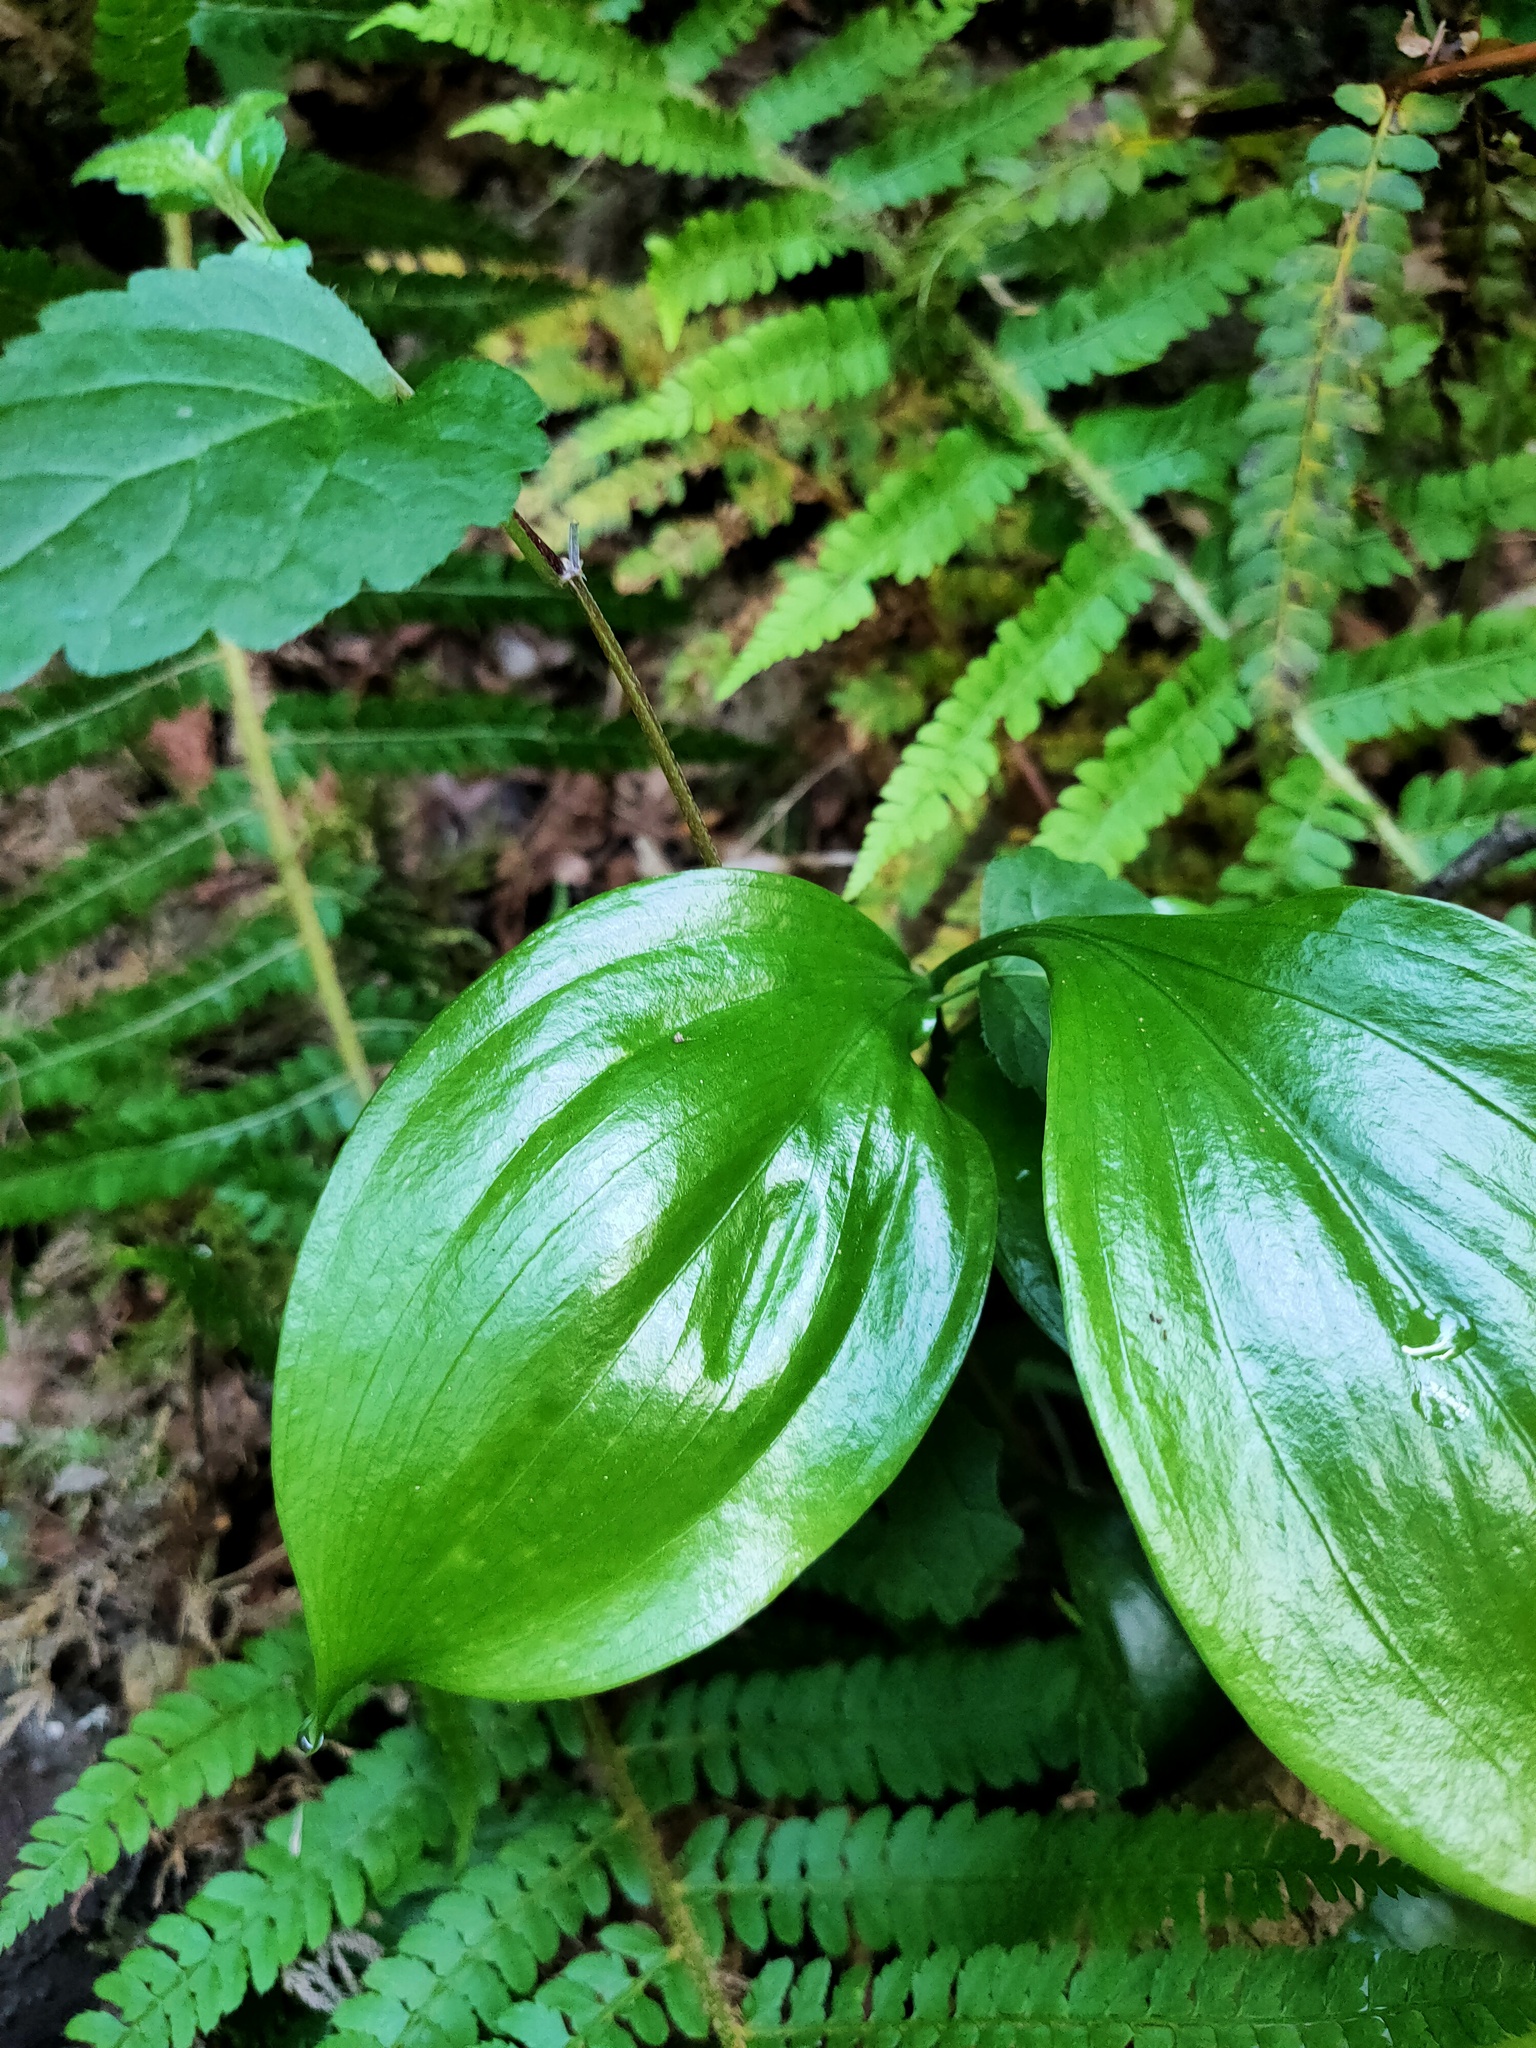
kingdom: Plantae
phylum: Tracheophyta
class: Liliopsida
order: Asparagales
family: Asparagaceae
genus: Ruscus
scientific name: Ruscus colchicus
